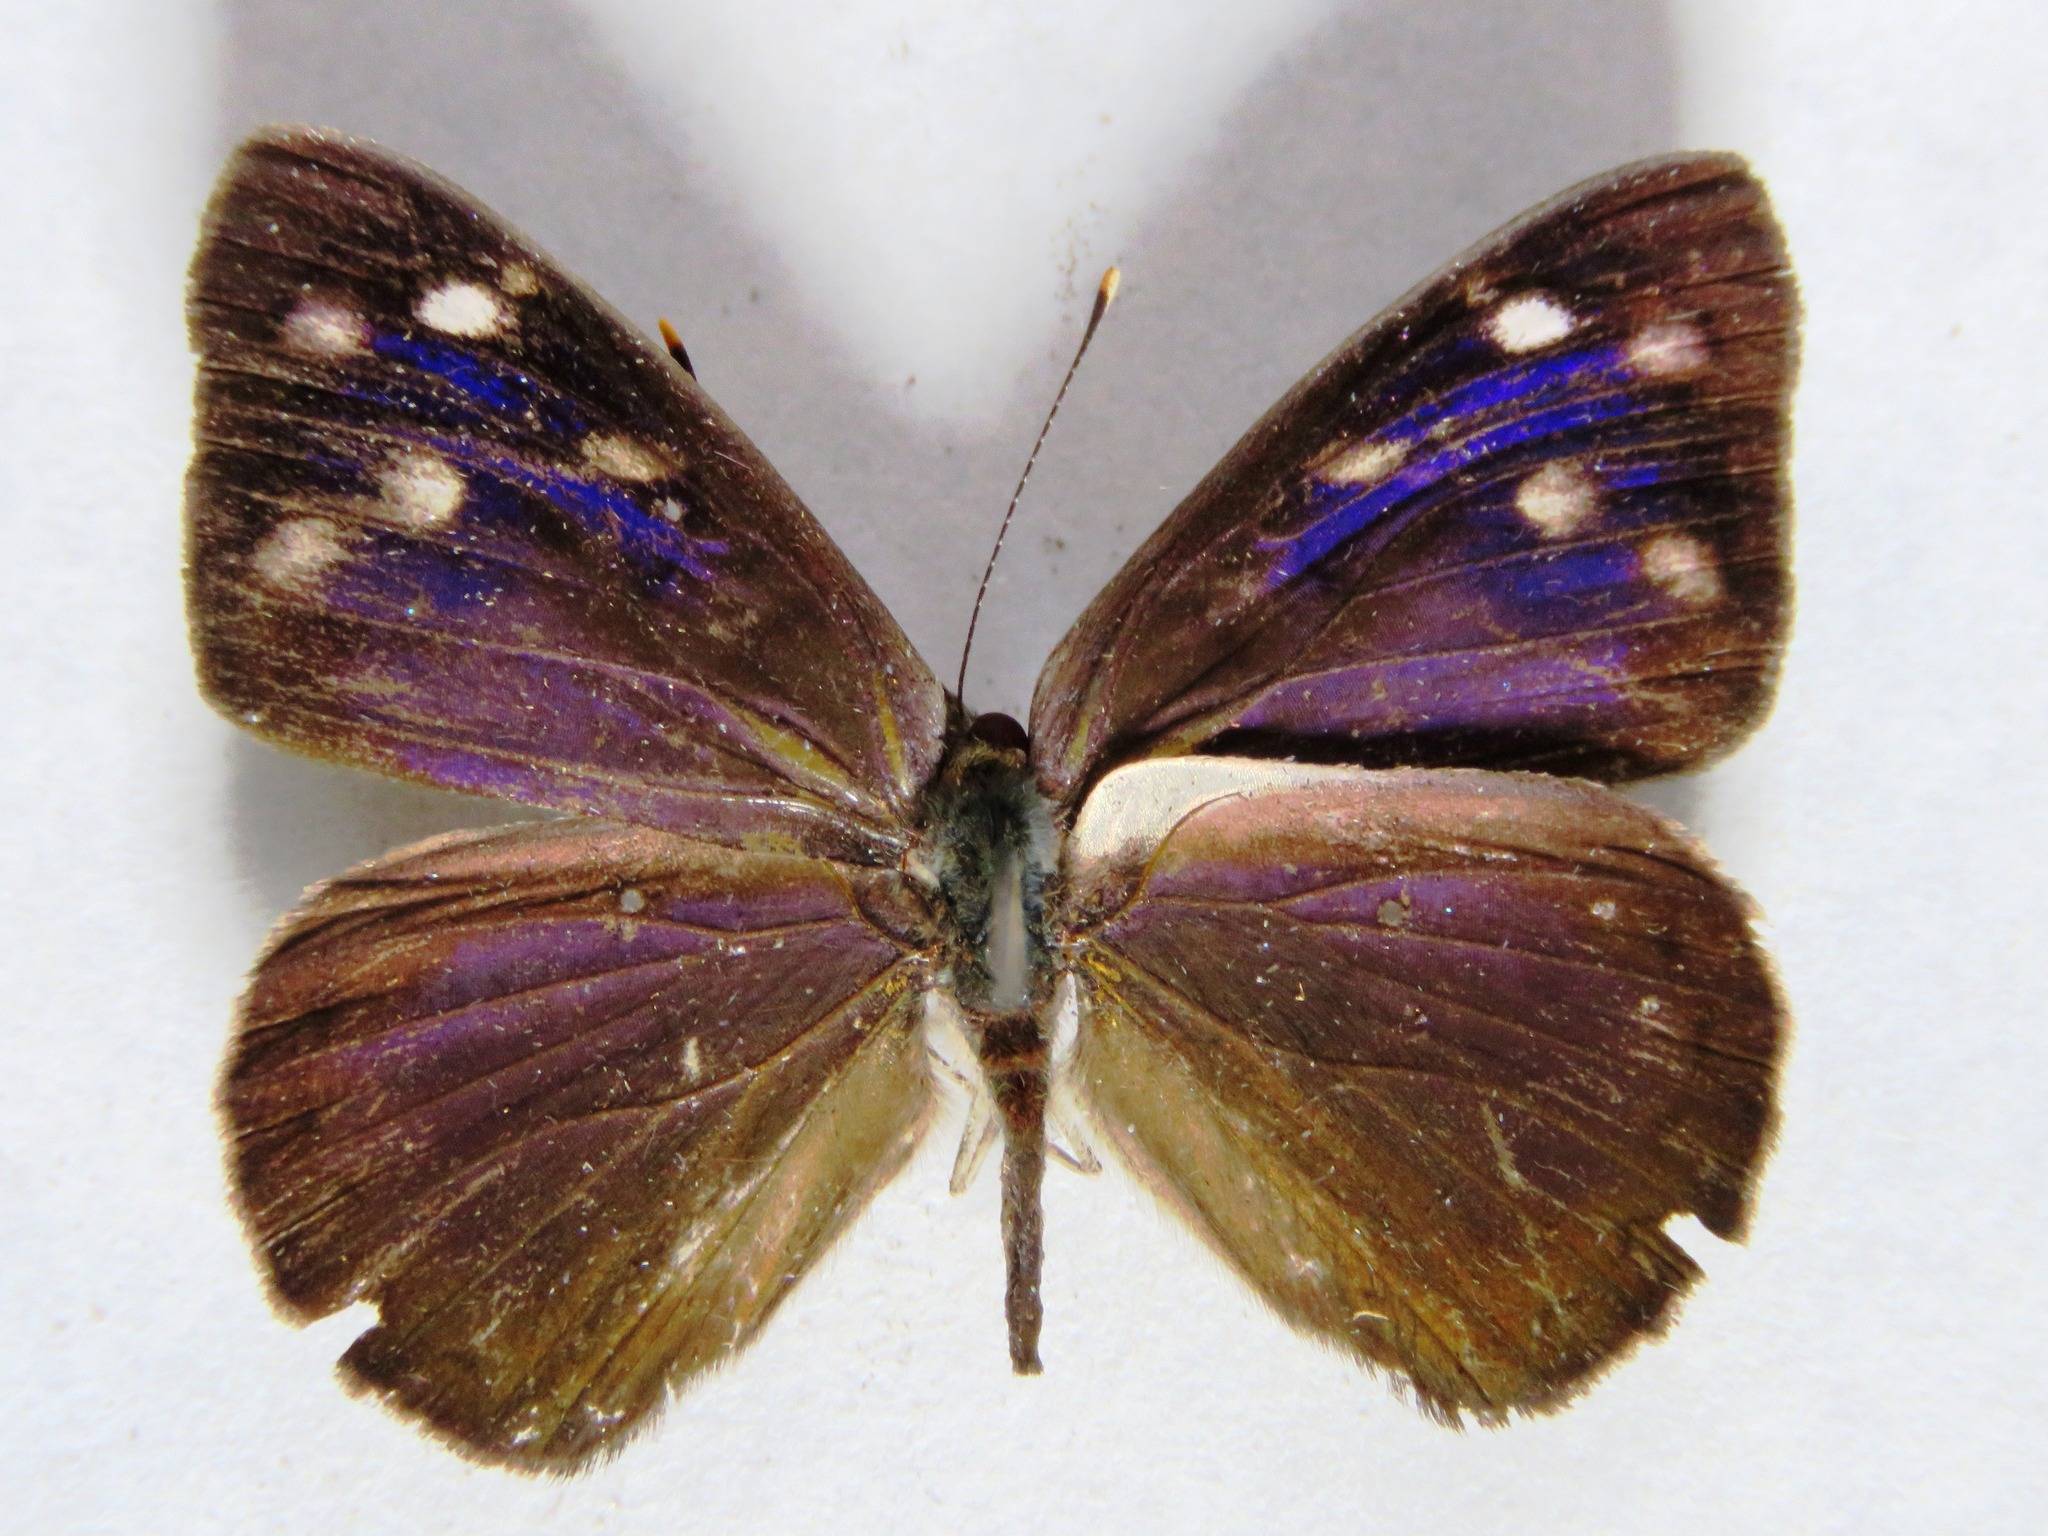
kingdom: Animalia
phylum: Arthropoda
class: Insecta
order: Lepidoptera
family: Nymphalidae
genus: Eunica
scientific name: Eunica monima
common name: Dingy purplewing
